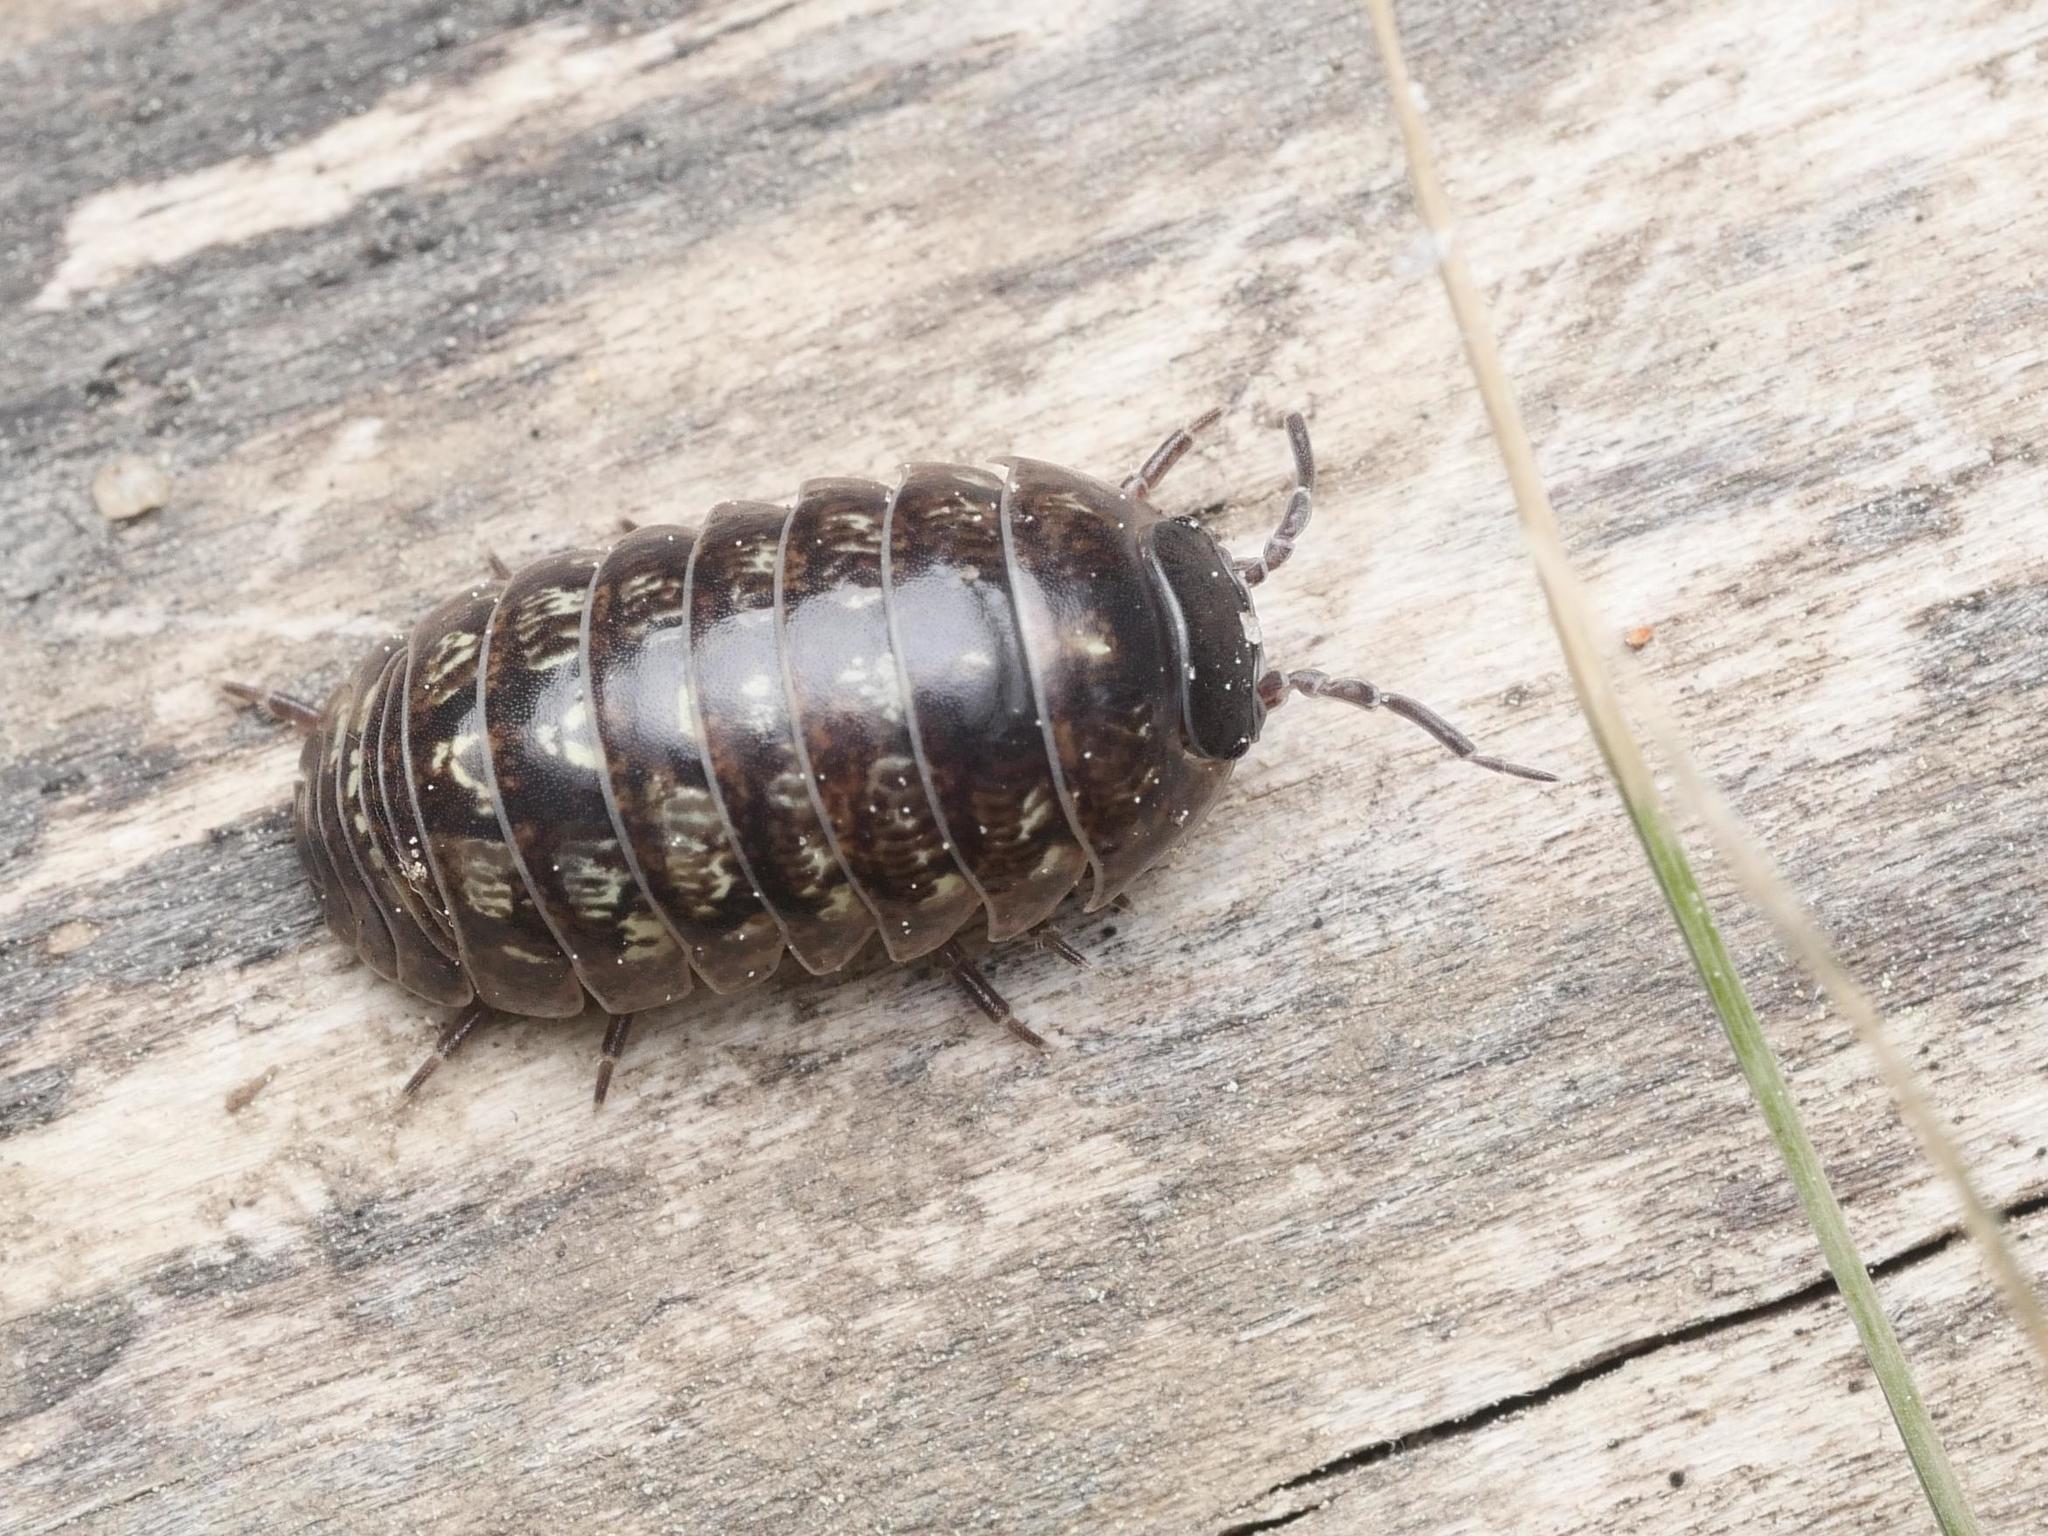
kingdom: Animalia
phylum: Arthropoda
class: Malacostraca
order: Isopoda
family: Armadillidiidae
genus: Armadillidium
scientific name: Armadillidium vulgare
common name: Common pill woodlouse
